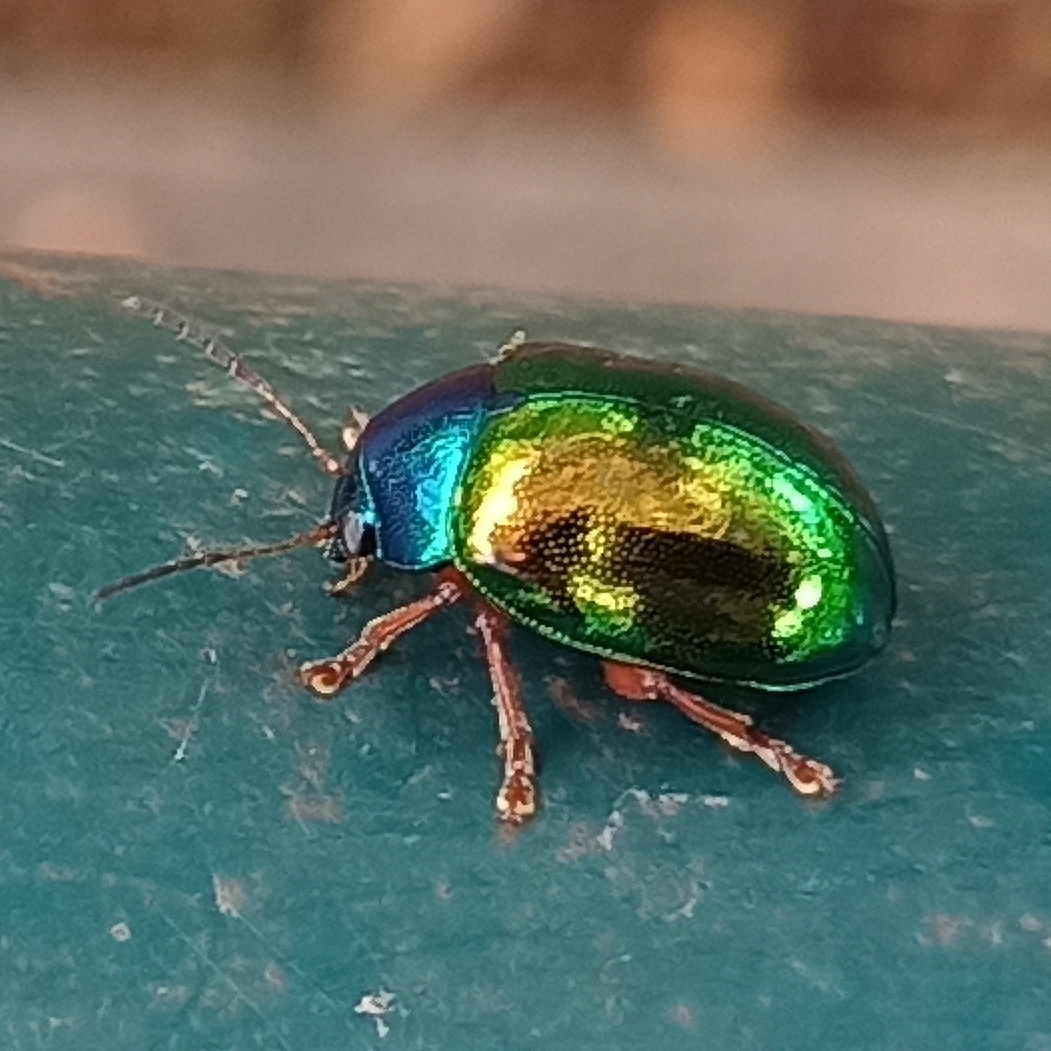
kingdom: Animalia
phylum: Arthropoda
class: Insecta
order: Coleoptera
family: Chrysomelidae
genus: Iphimeis
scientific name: Iphimeis
